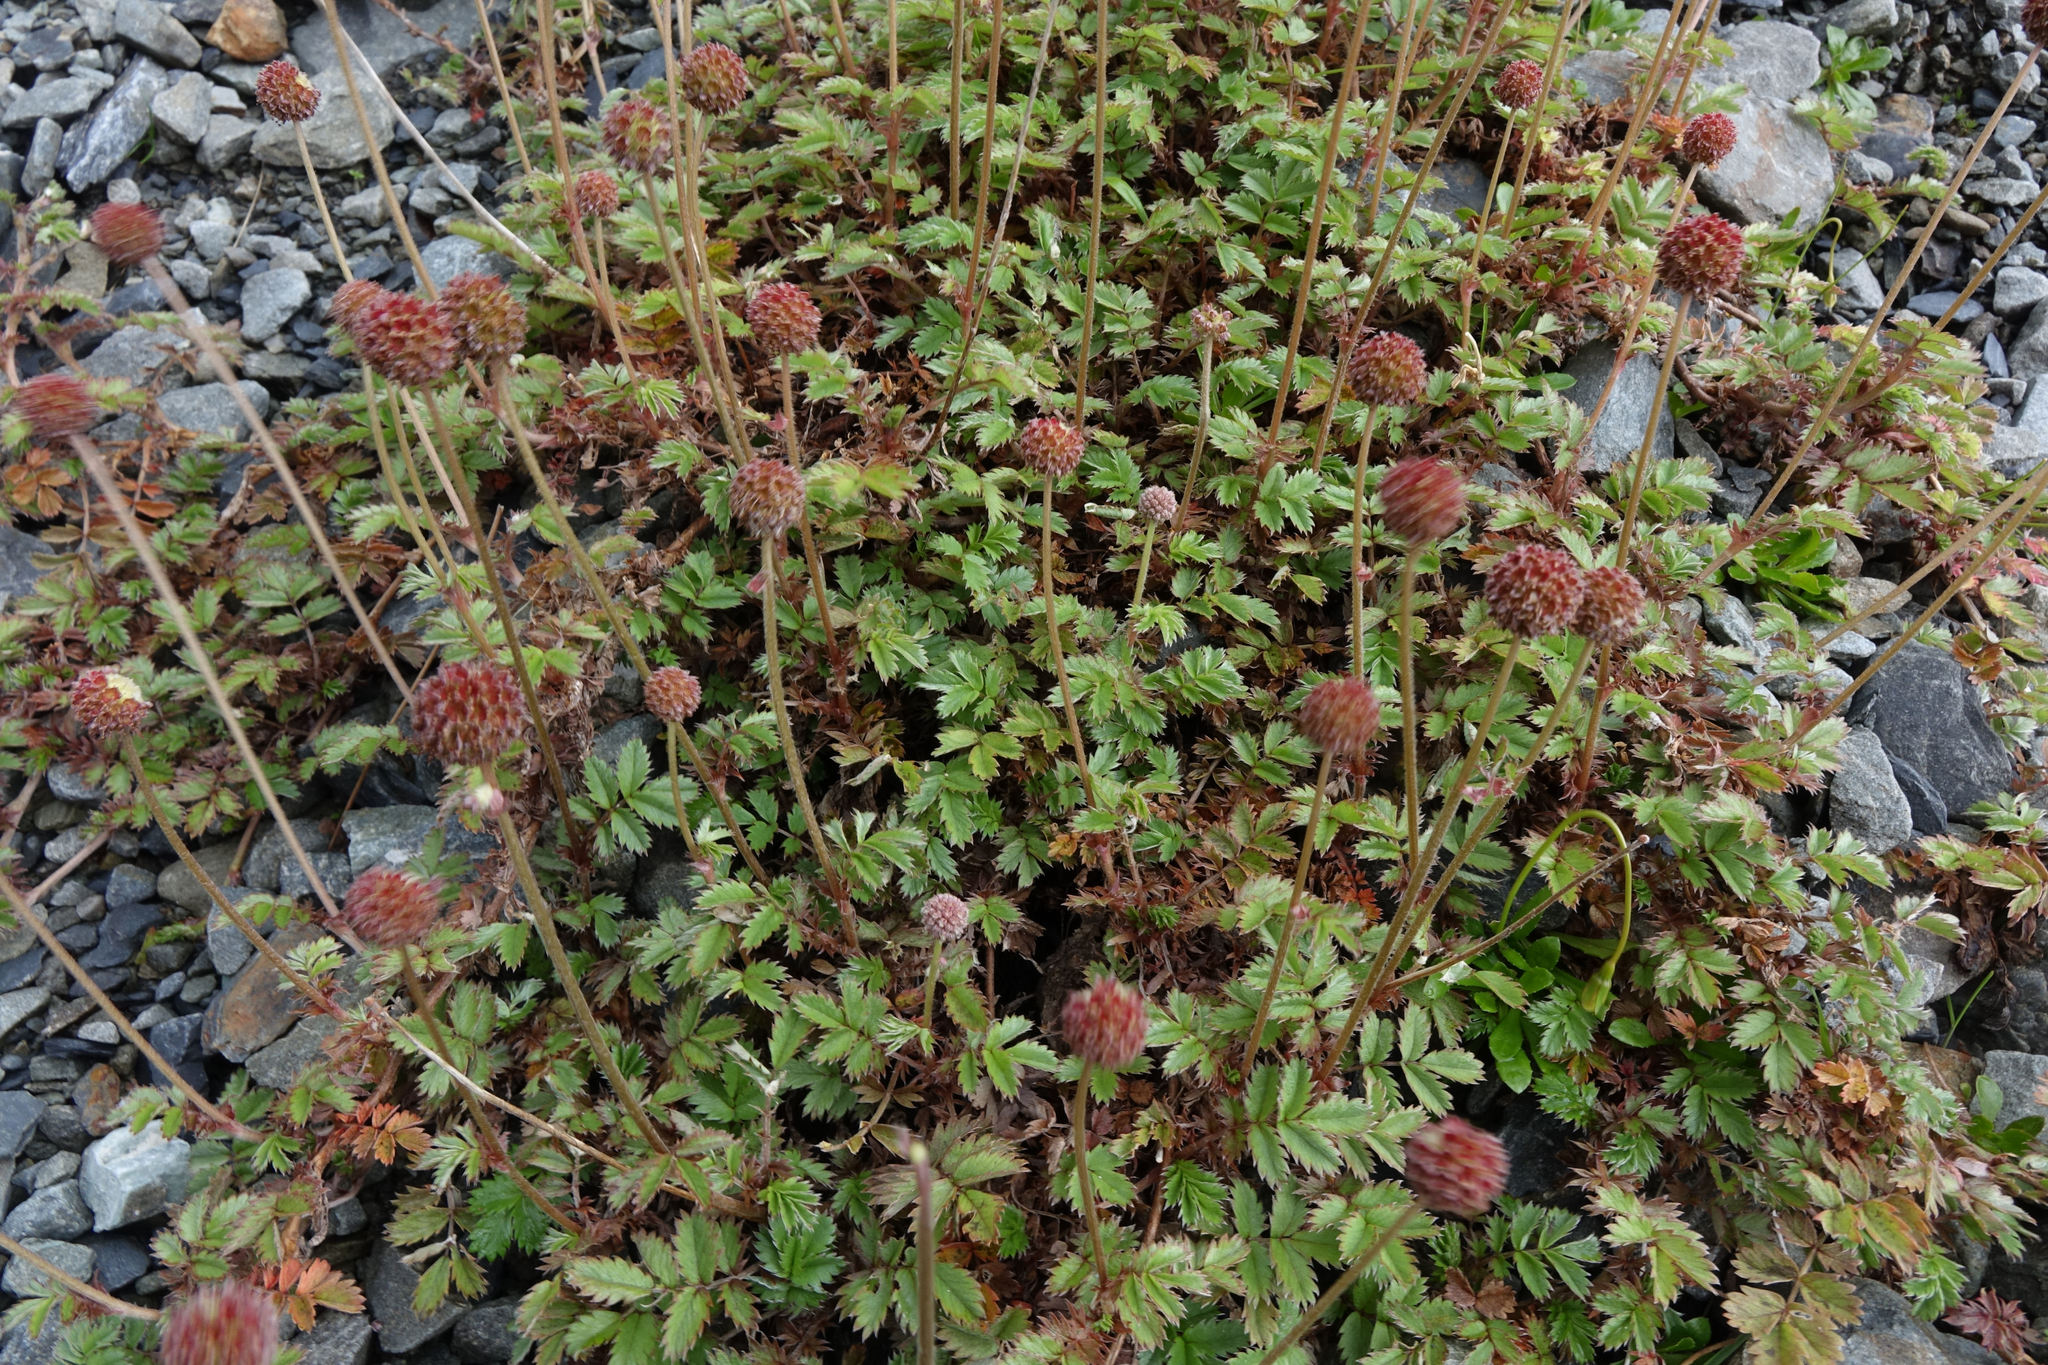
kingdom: Plantae
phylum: Tracheophyta
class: Magnoliopsida
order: Rosales
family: Rosaceae
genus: Acaena
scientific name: Acaena anserinifolia
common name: Bronze pirri-pirri-bur
